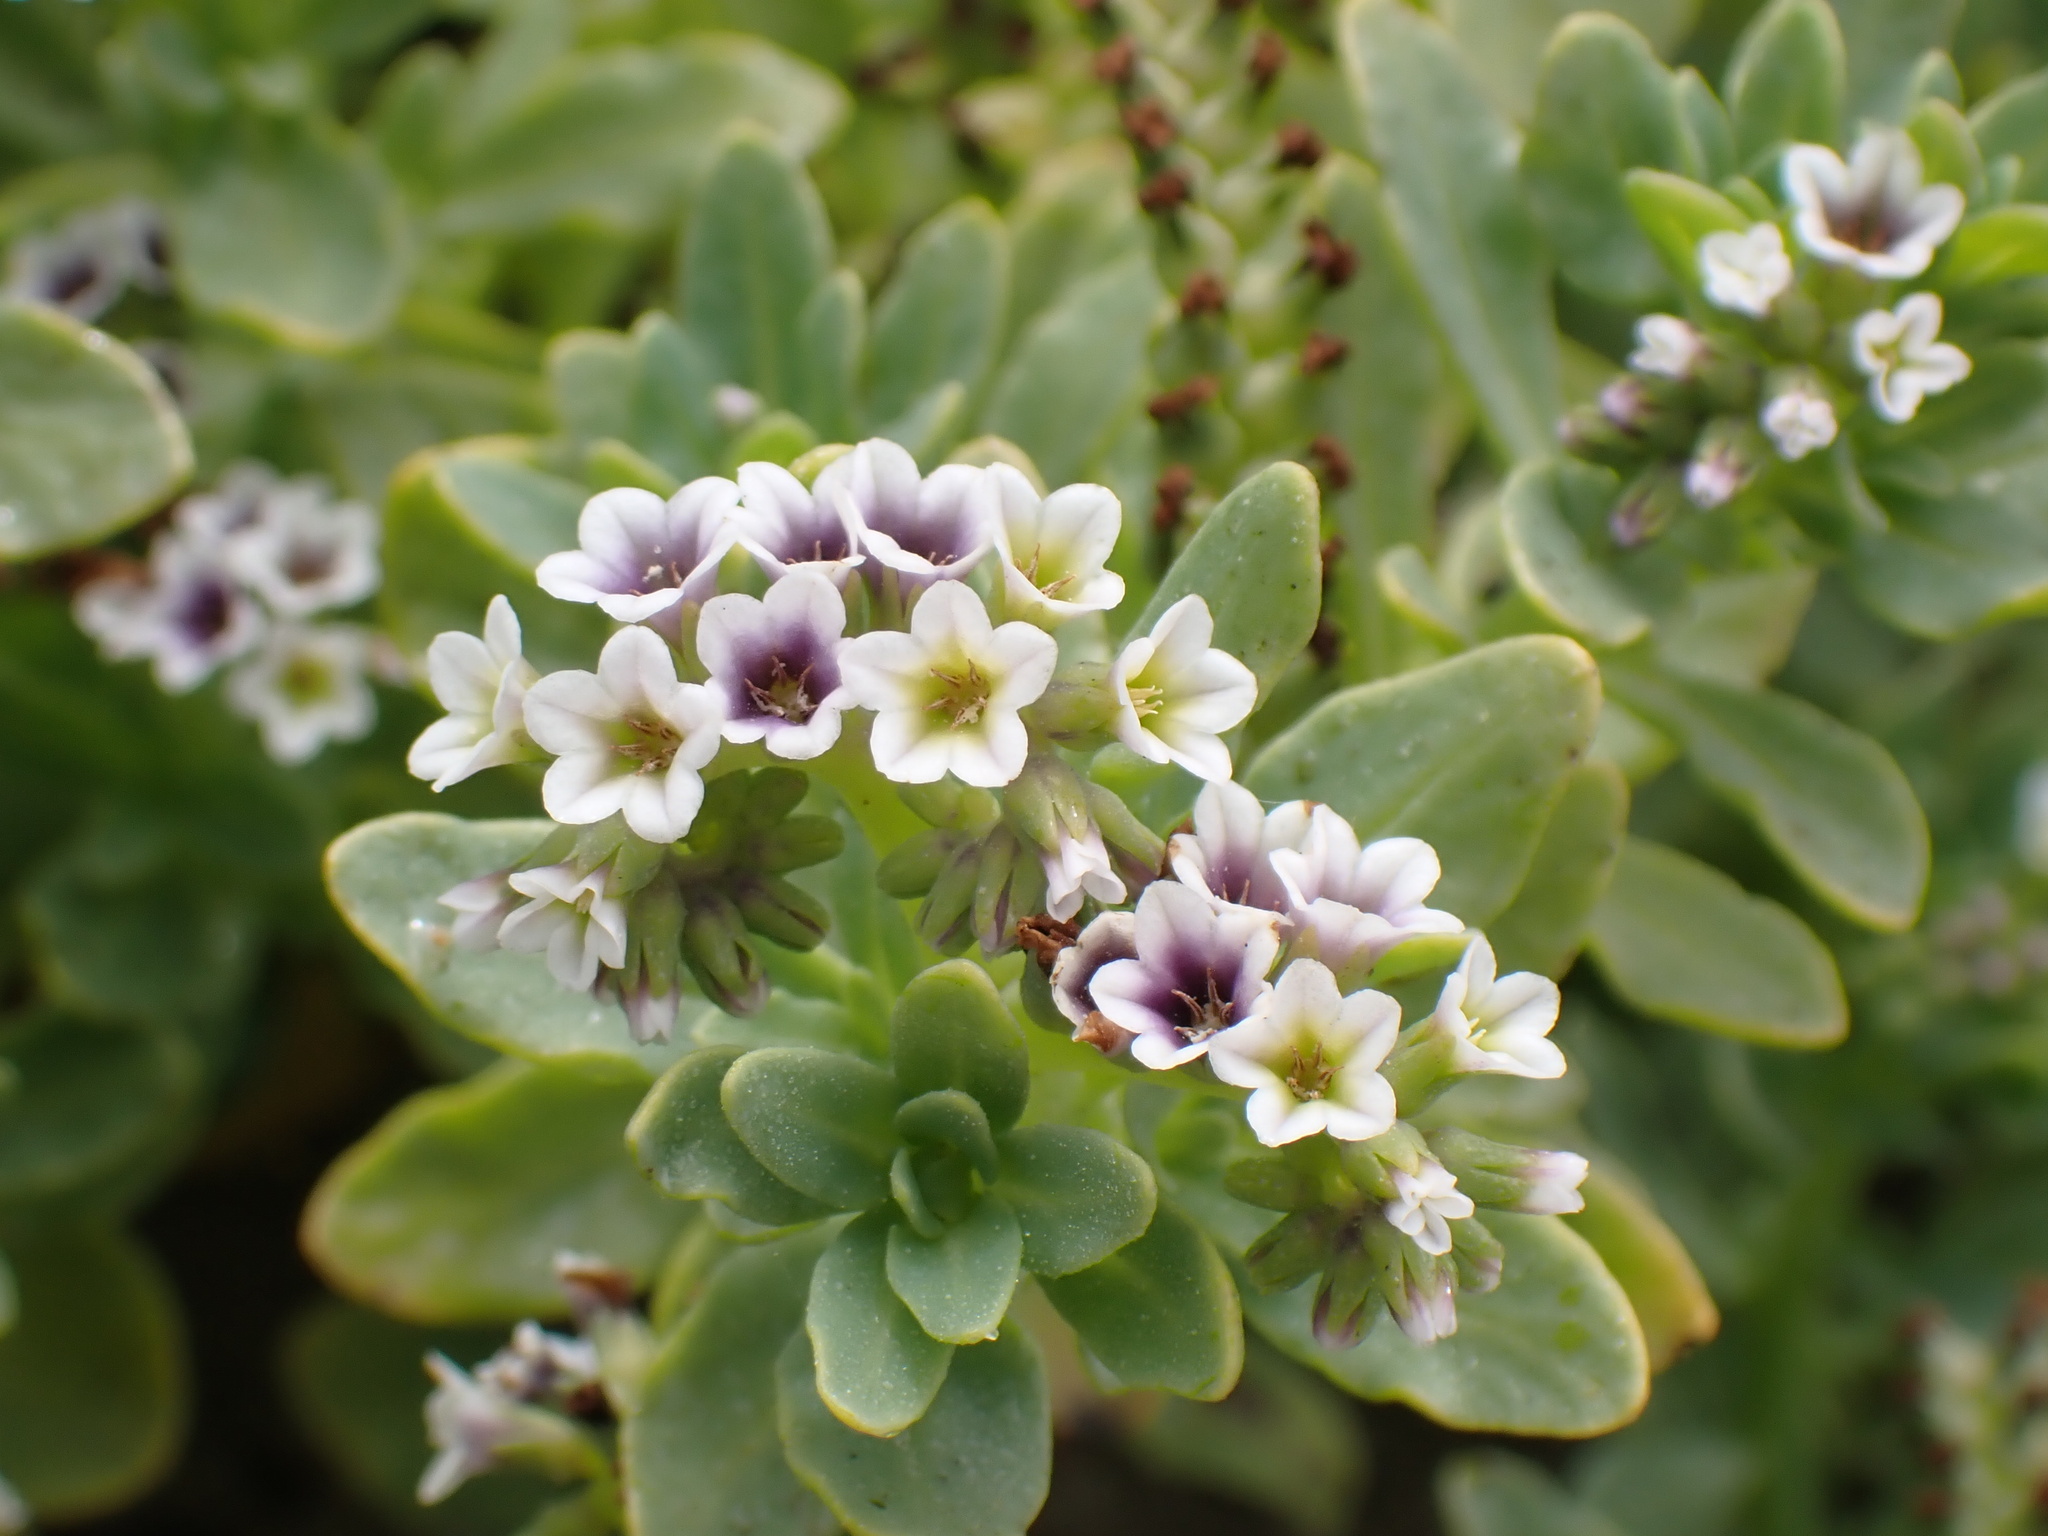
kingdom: Plantae
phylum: Tracheophyta
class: Magnoliopsida
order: Boraginales
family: Heliotropiaceae
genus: Heliotropium
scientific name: Heliotropium curassavicum
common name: Seaside heliotrope
